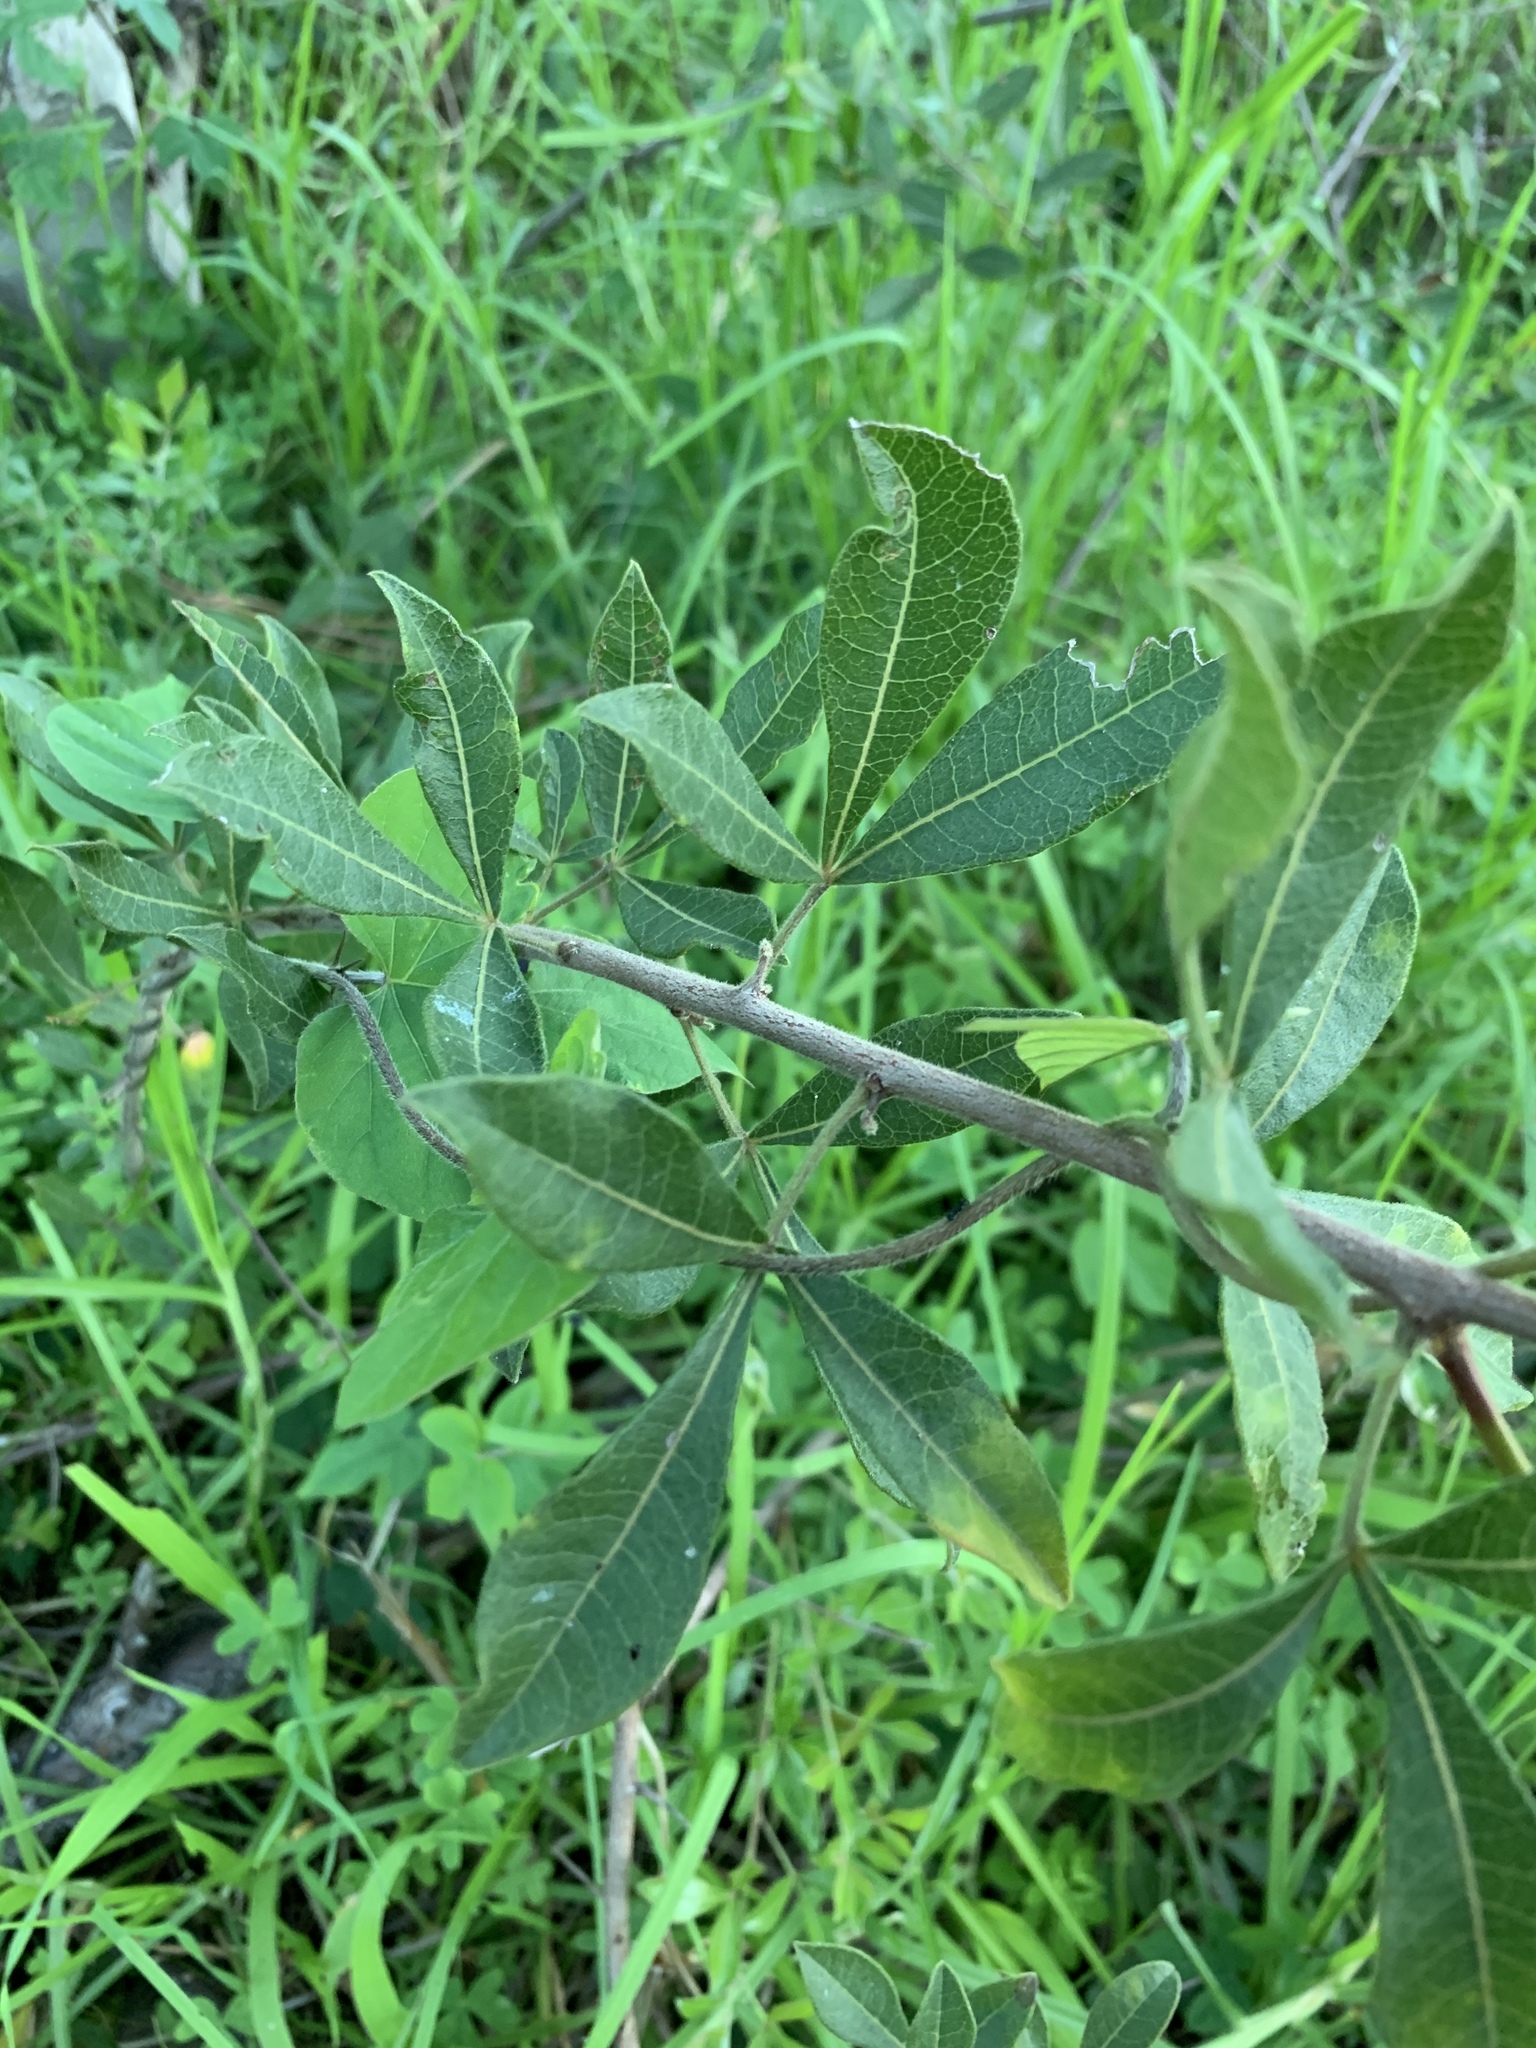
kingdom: Plantae
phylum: Tracheophyta
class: Magnoliopsida
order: Sapindales
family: Anacardiaceae
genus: Searsia
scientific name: Searsia laevigata
